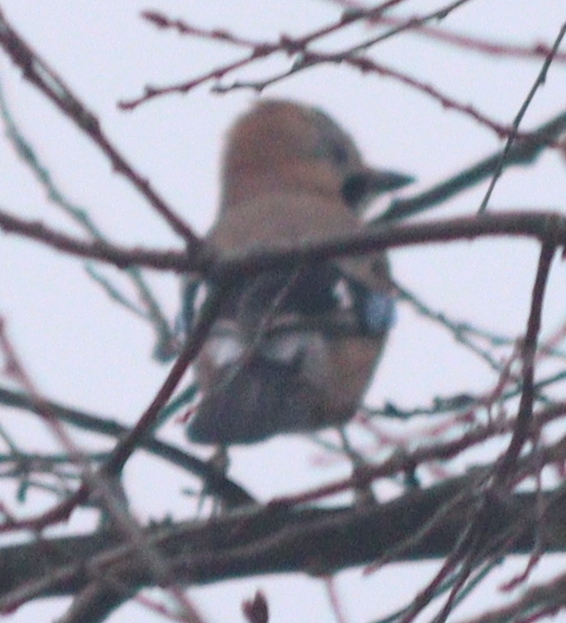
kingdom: Animalia
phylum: Chordata
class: Aves
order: Passeriformes
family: Corvidae
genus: Garrulus
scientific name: Garrulus glandarius
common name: Eurasian jay
